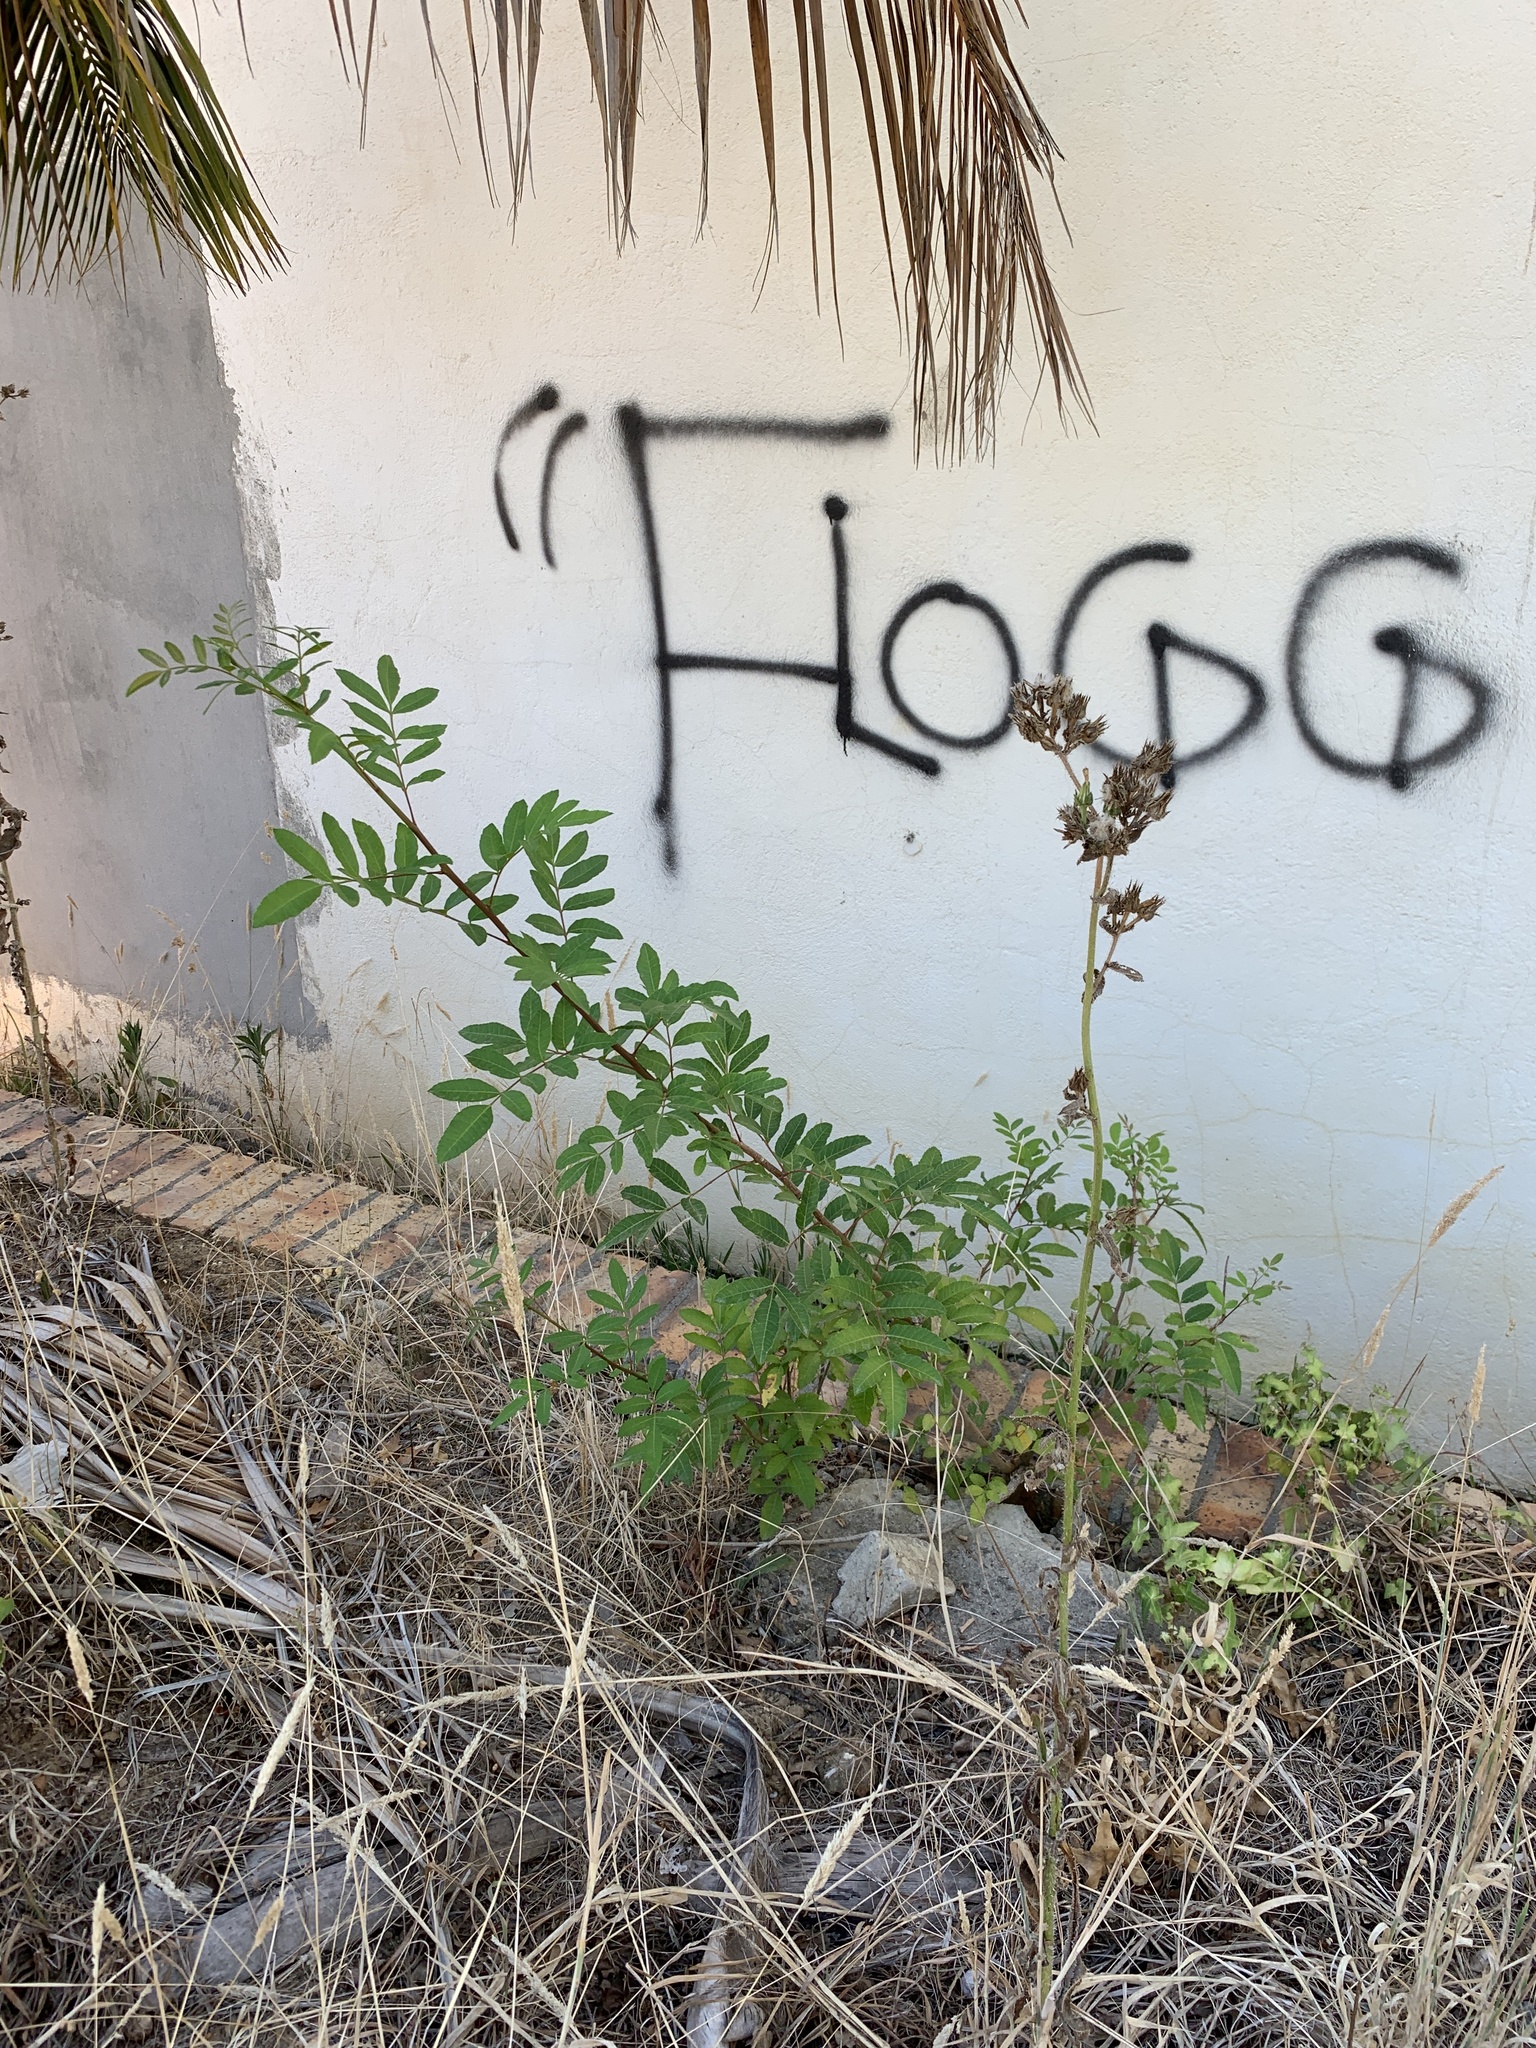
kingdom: Plantae
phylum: Tracheophyta
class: Magnoliopsida
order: Sapindales
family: Anacardiaceae
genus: Schinus
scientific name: Schinus terebinthifolia
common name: Brazilian peppertree
